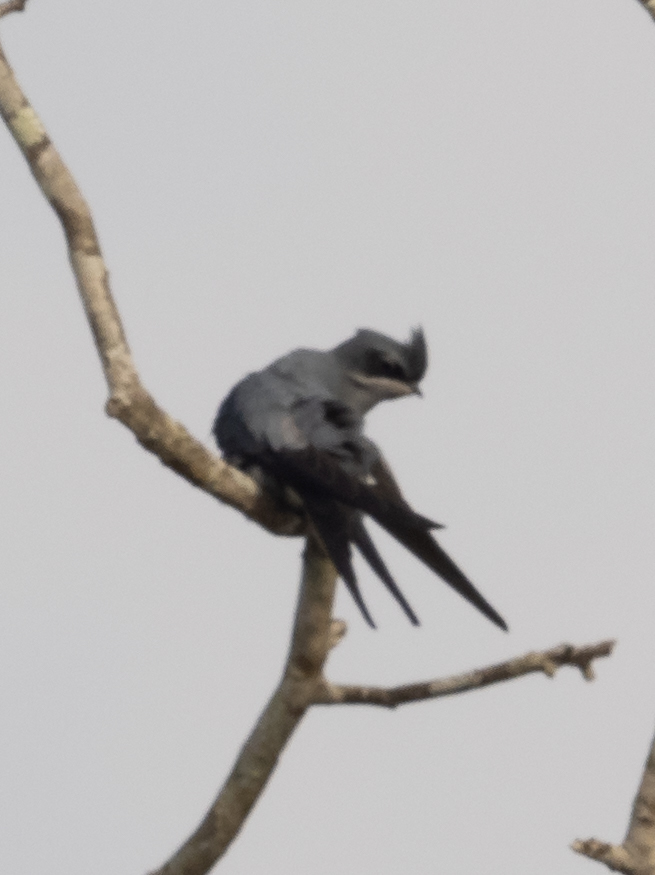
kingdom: Animalia
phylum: Chordata
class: Aves
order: Apodiformes
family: Hemiprocnidae
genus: Hemiprocne
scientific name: Hemiprocne coronata
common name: Crested treeswift
